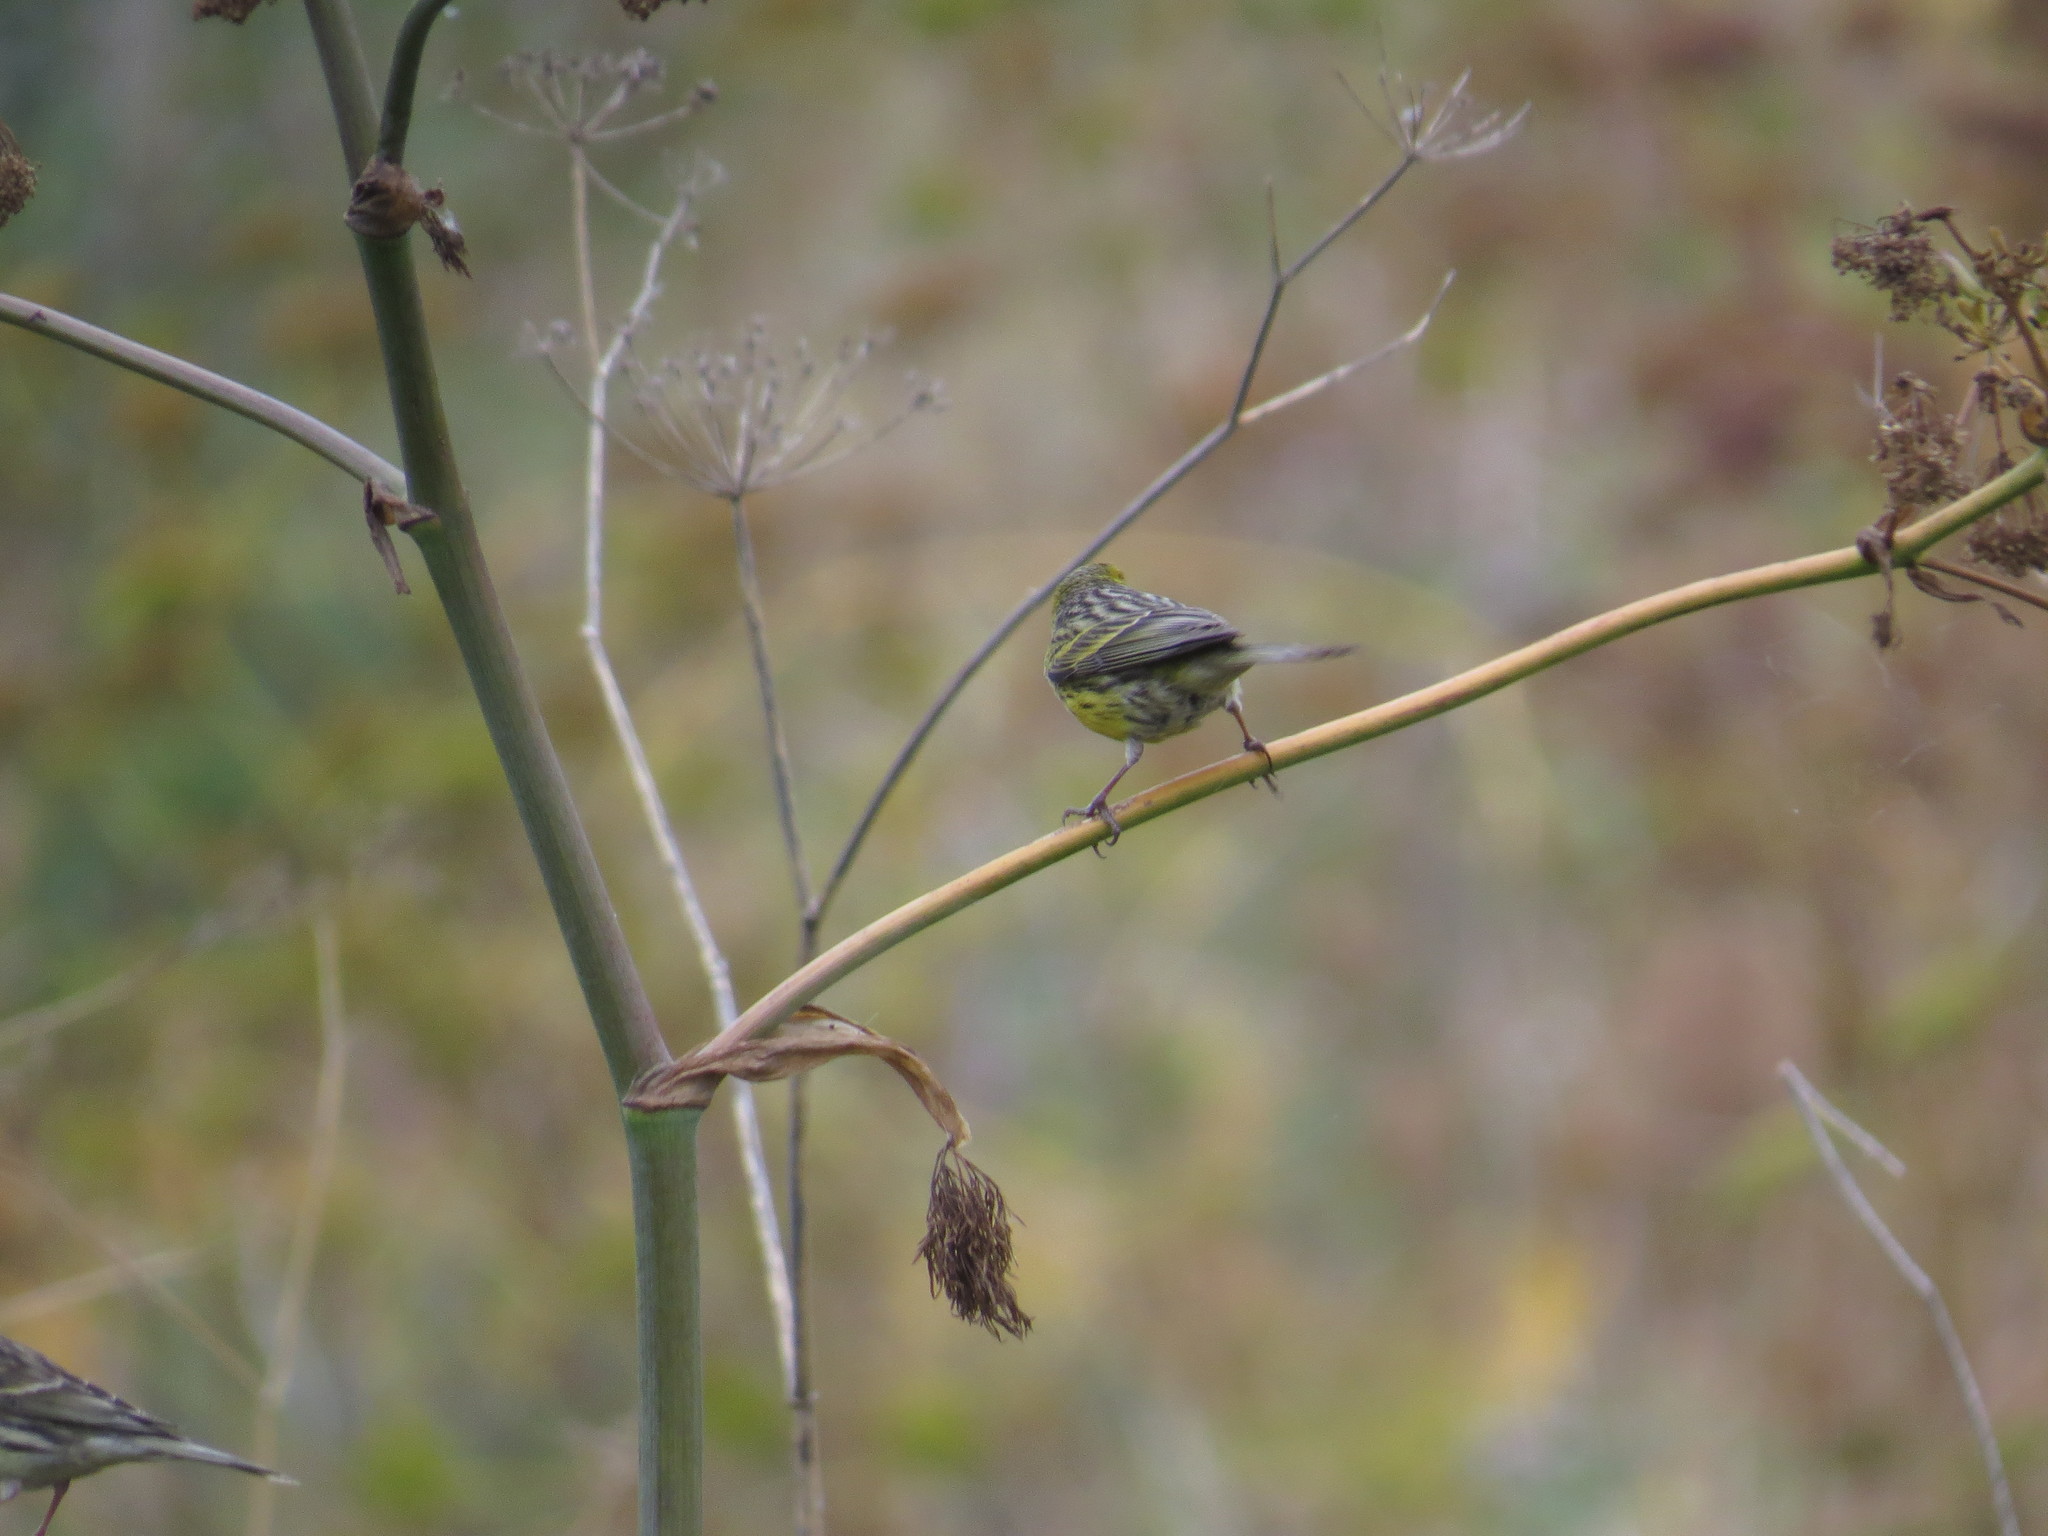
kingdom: Animalia
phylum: Chordata
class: Aves
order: Passeriformes
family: Fringillidae
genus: Serinus
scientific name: Serinus canaria
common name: Atlantic canary
